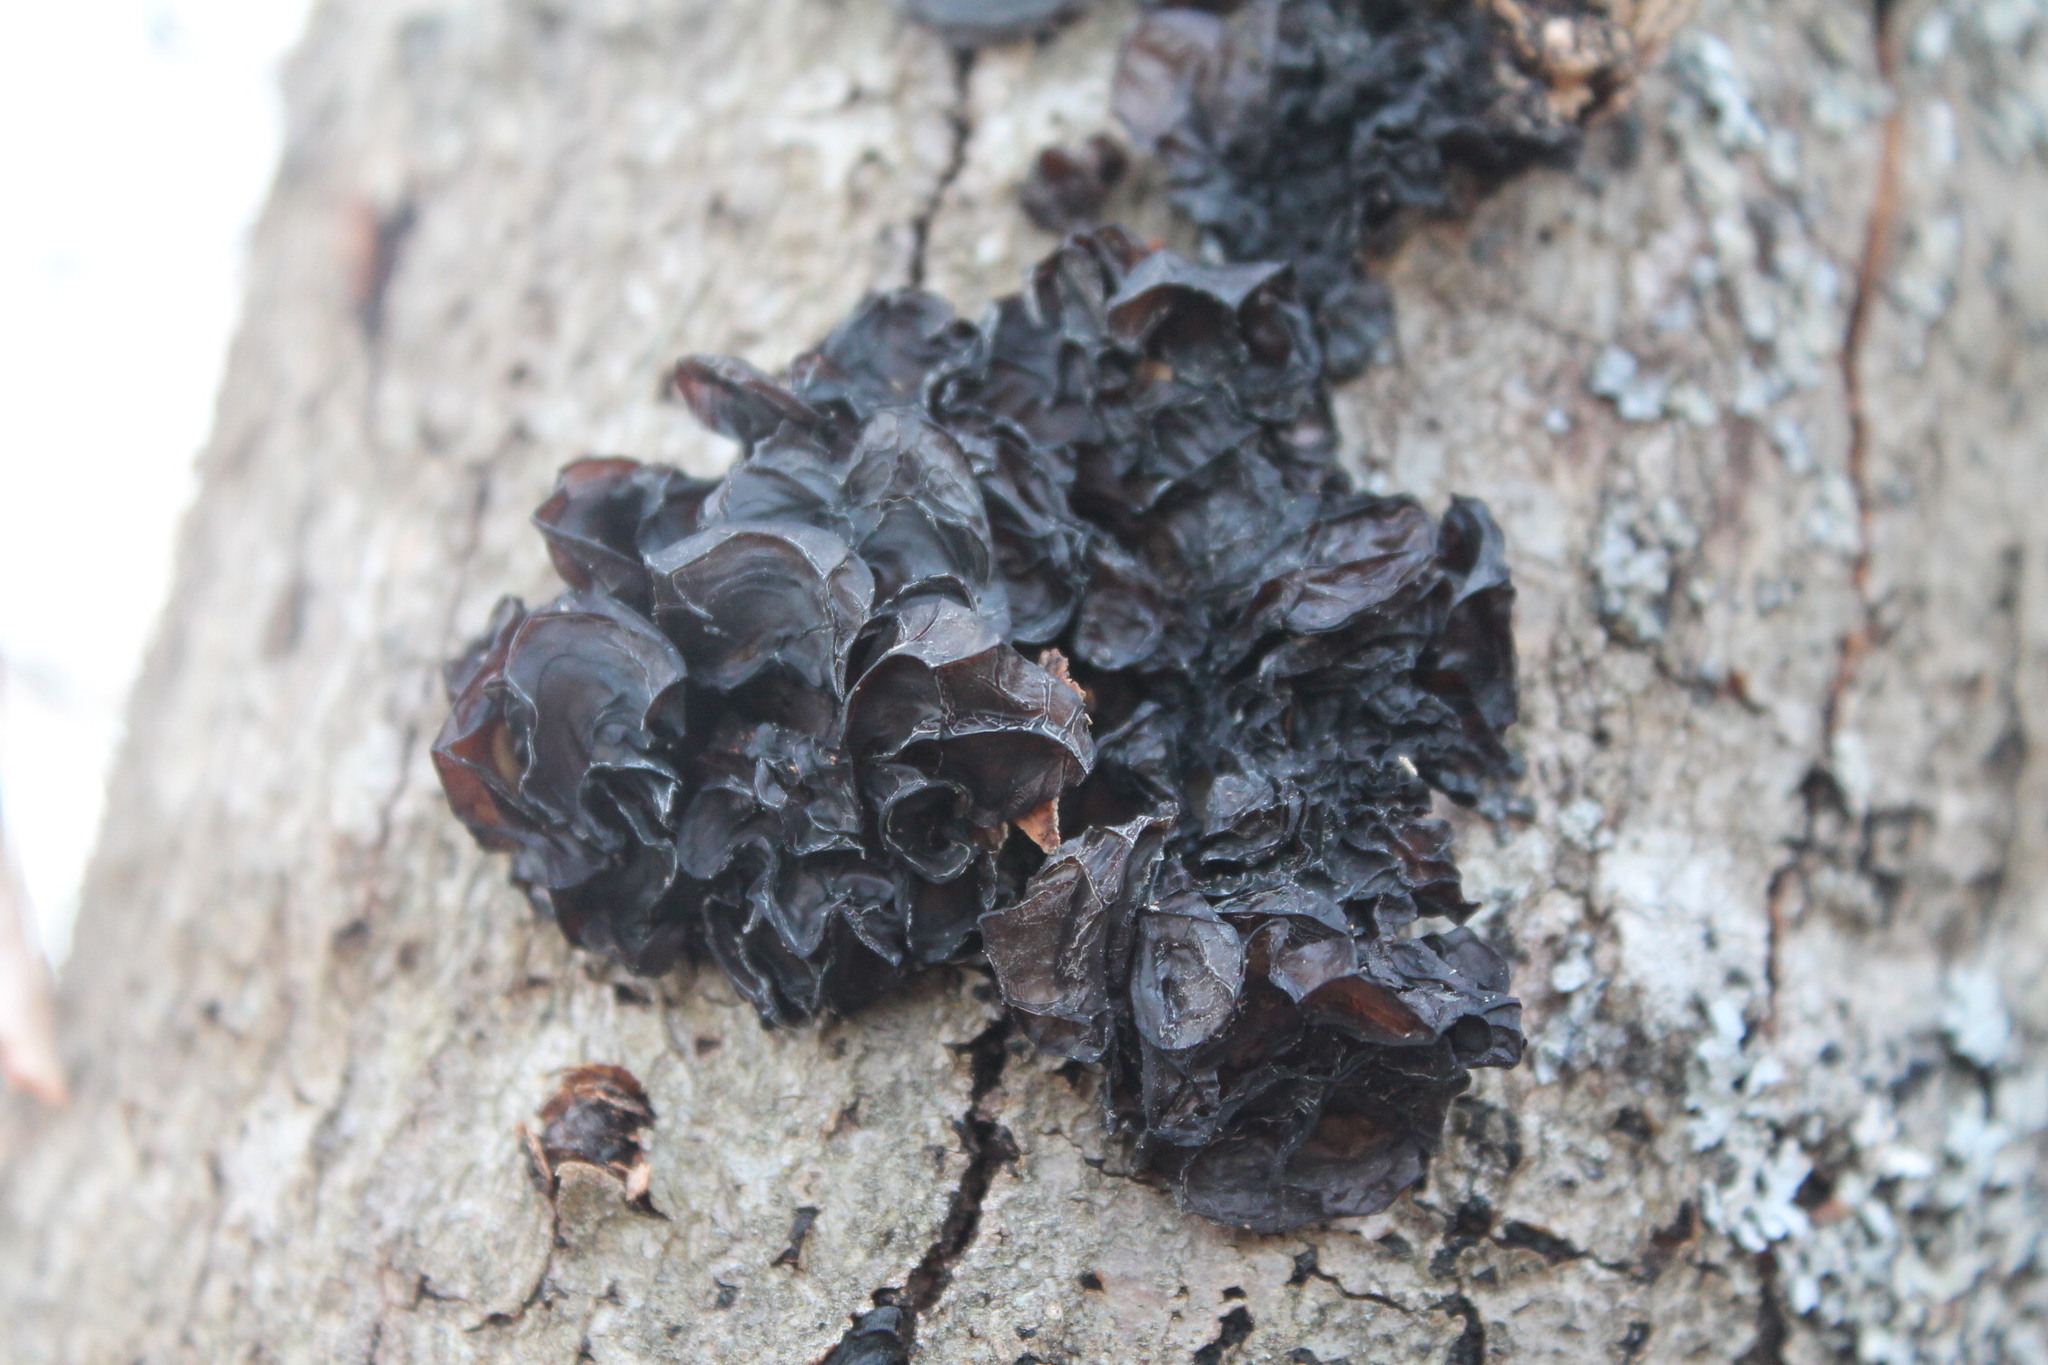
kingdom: Fungi
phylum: Basidiomycota
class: Agaricomycetes
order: Auriculariales
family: Auriculariaceae
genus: Exidia
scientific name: Exidia
